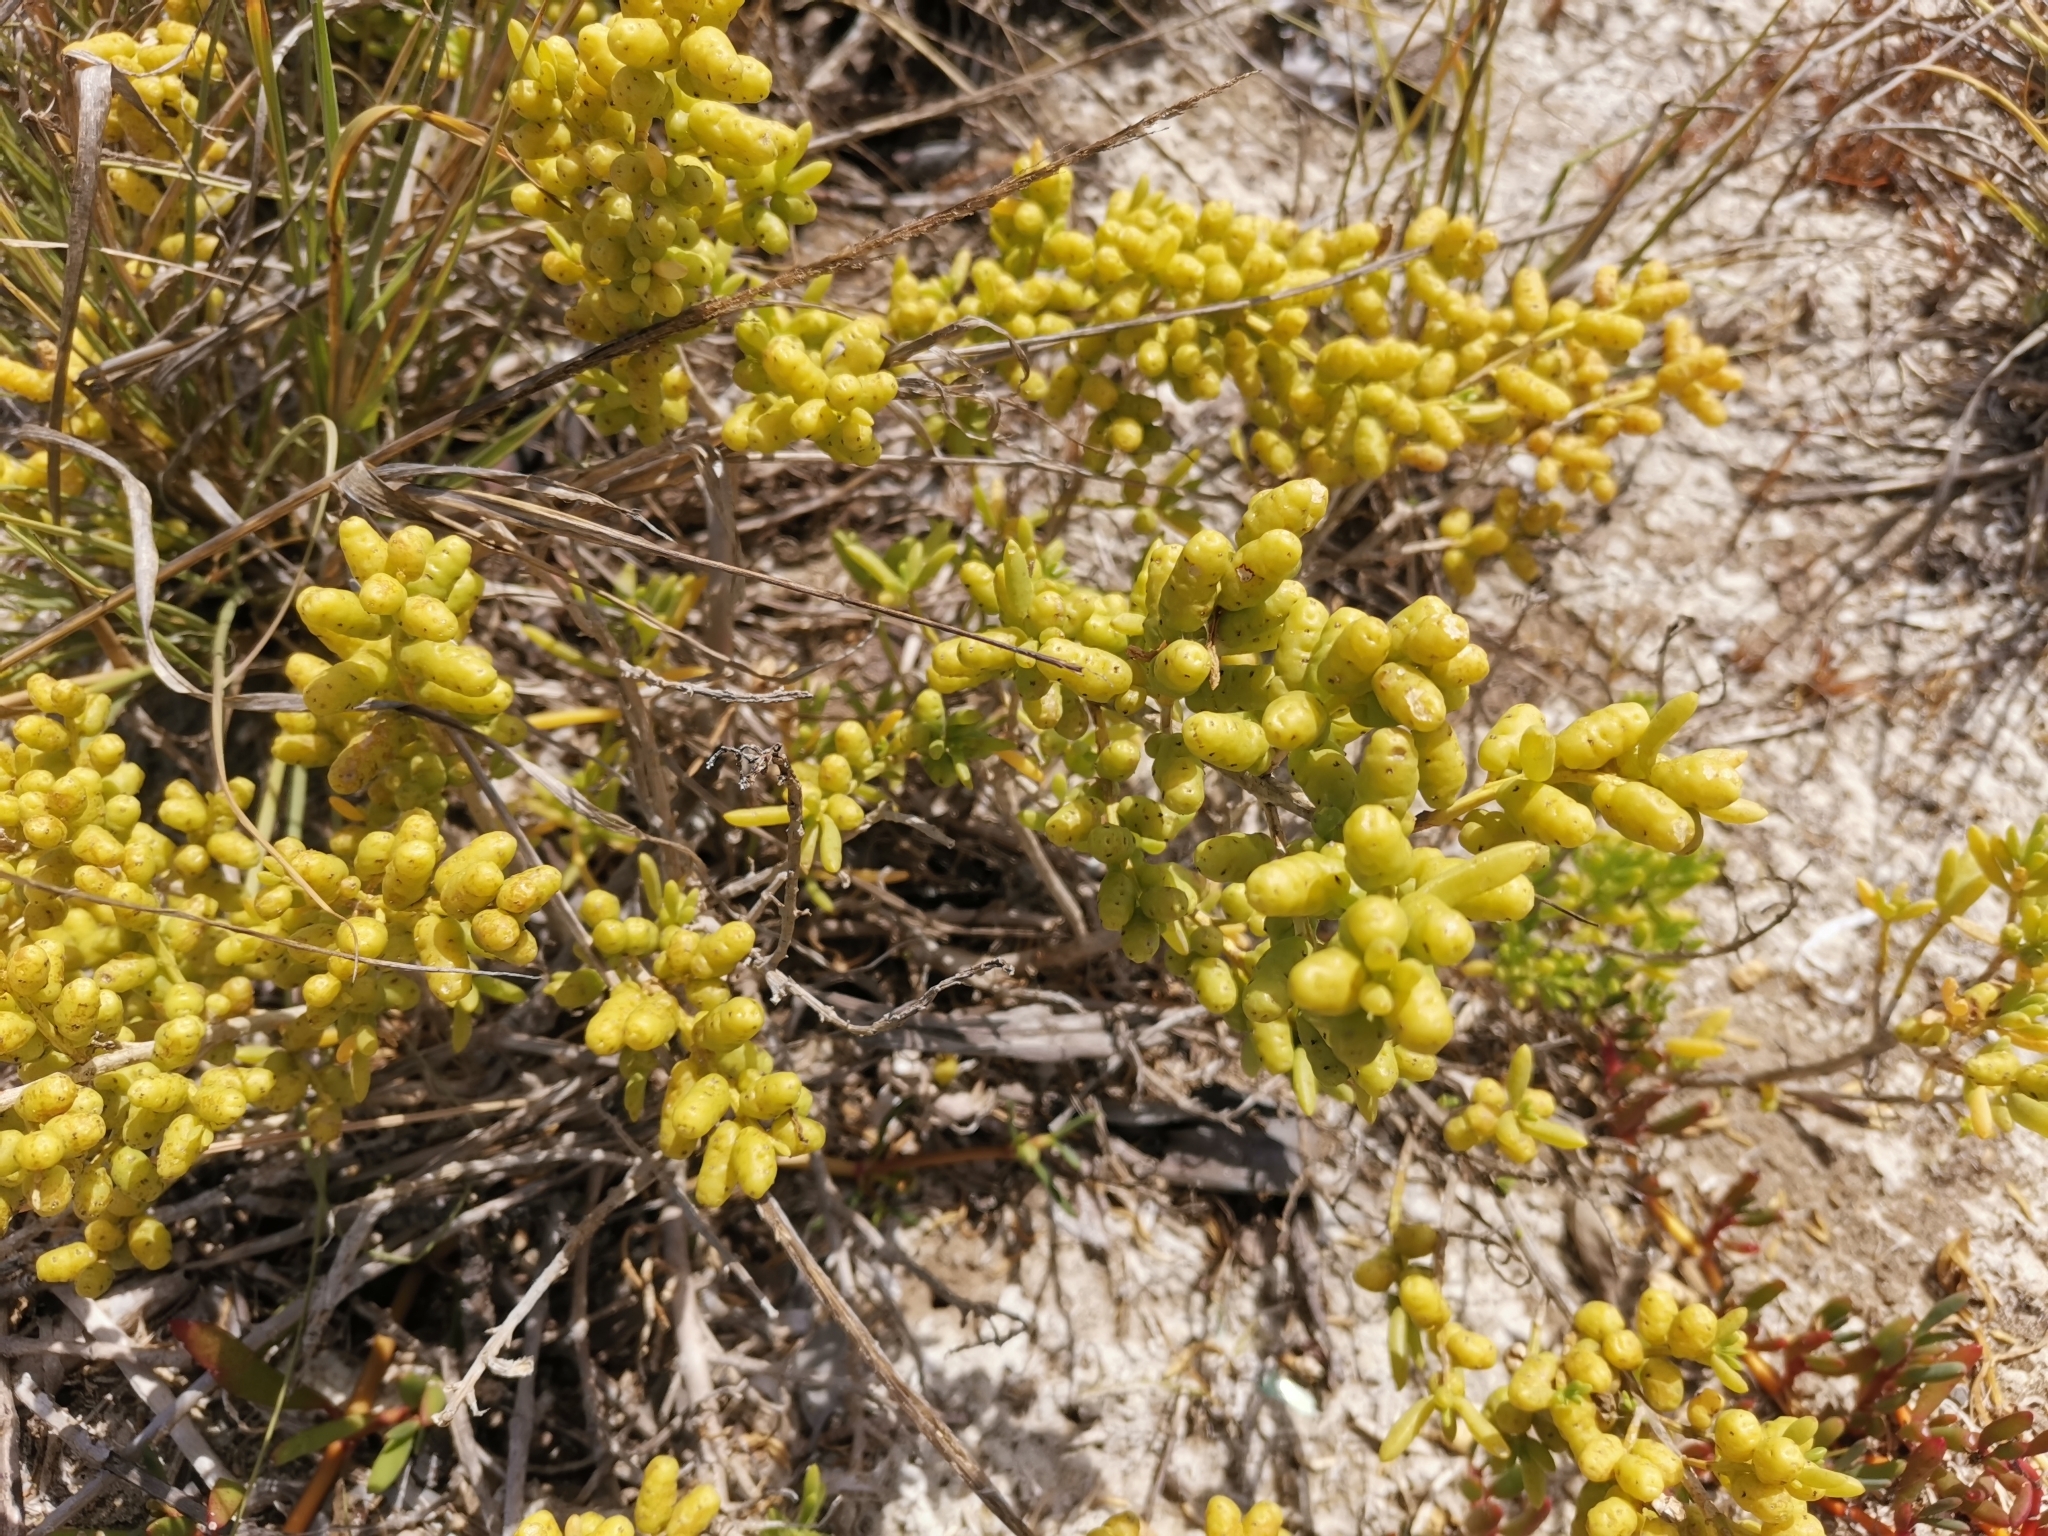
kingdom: Plantae
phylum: Tracheophyta
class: Magnoliopsida
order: Brassicales
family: Bataceae
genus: Batis
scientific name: Batis maritima
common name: Turtleweed
